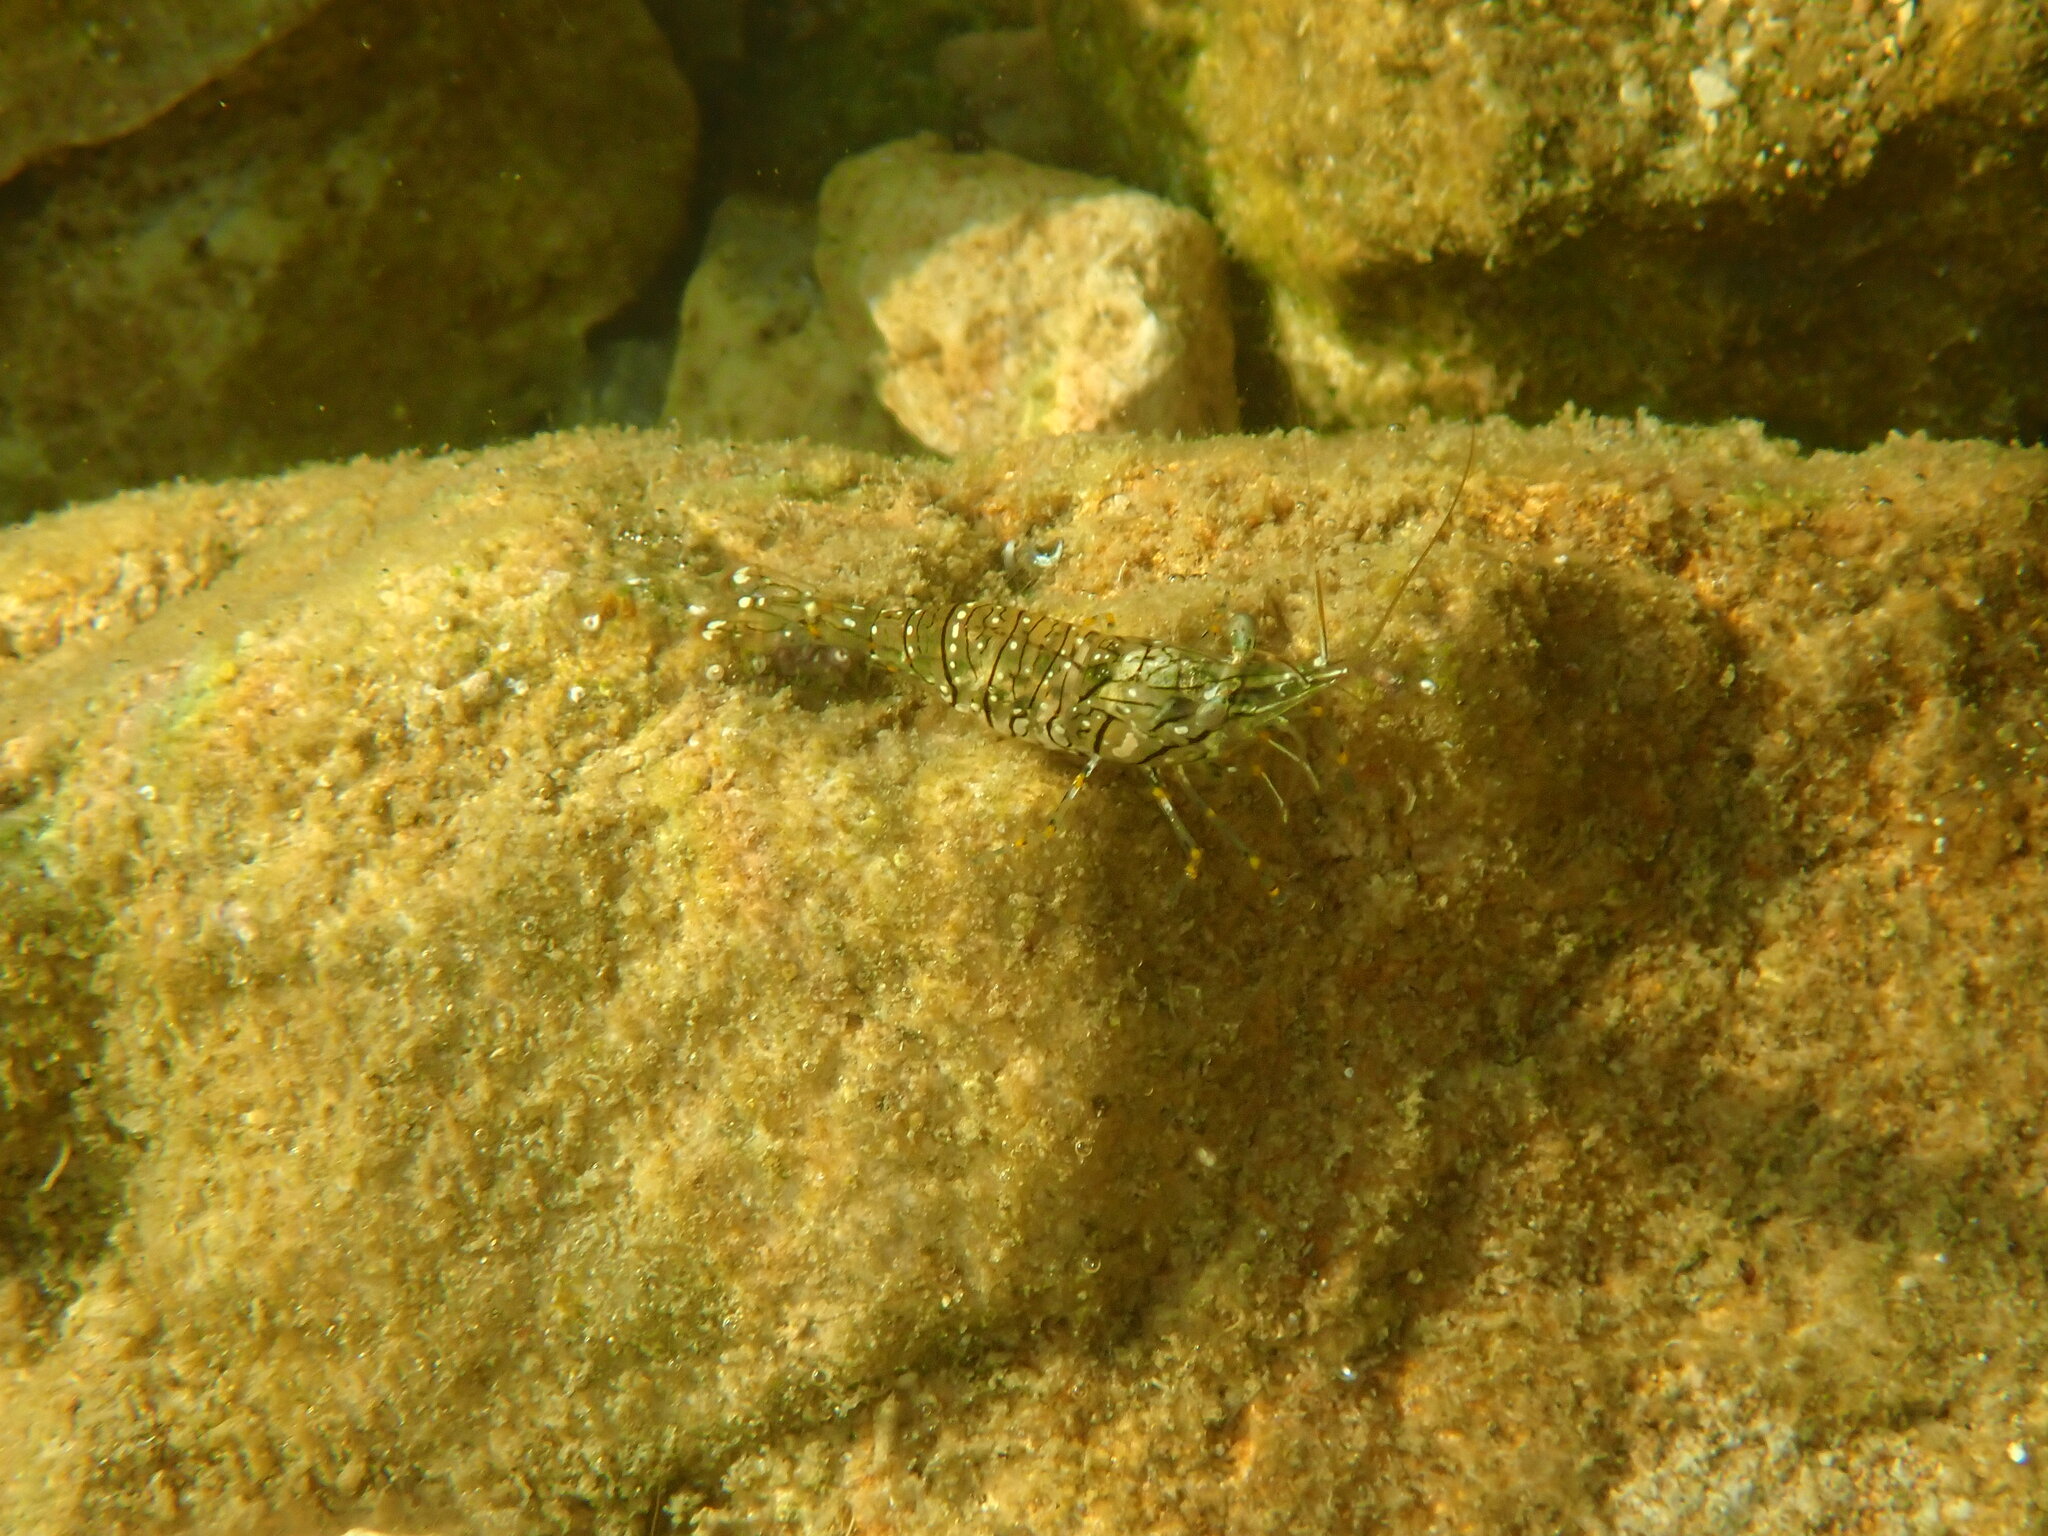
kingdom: Animalia
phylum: Arthropoda
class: Malacostraca
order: Decapoda
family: Palaemonidae
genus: Palaemon
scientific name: Palaemon elegans
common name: Grass prawm
